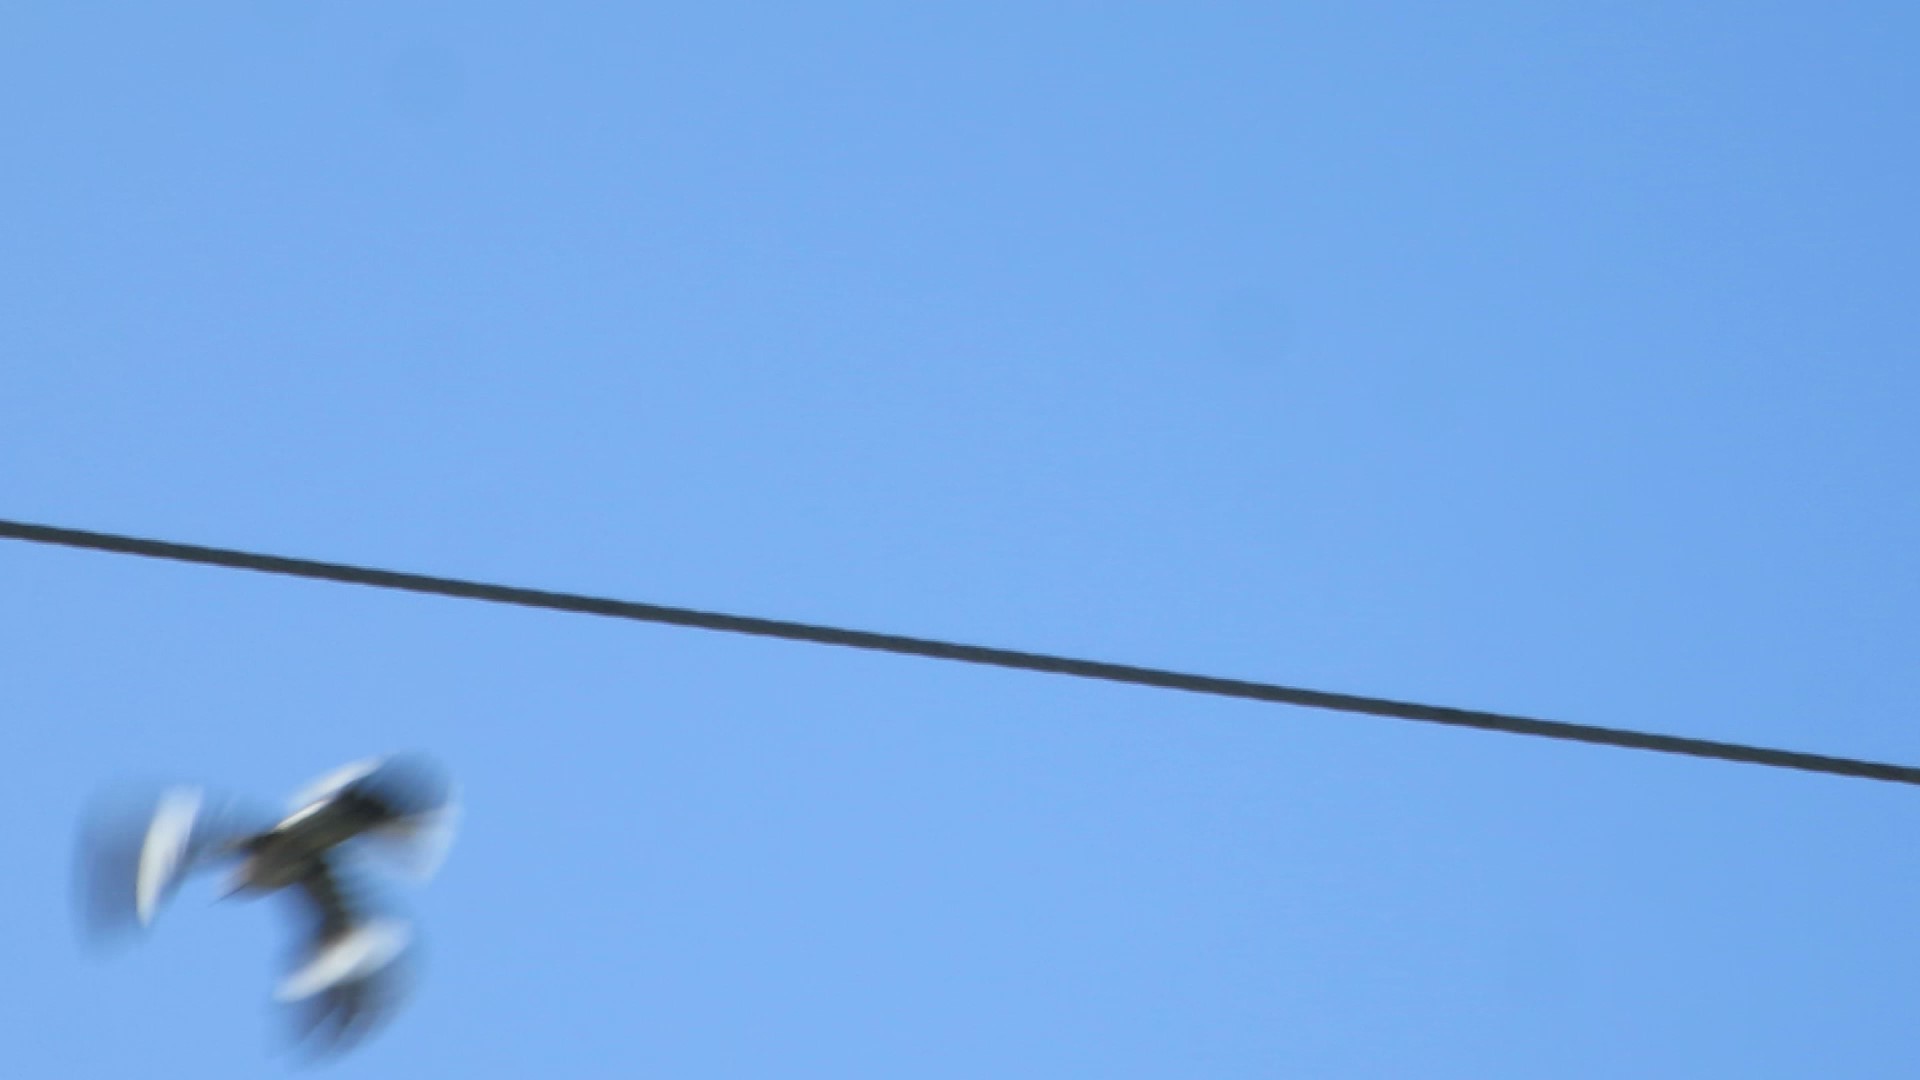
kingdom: Animalia
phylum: Chordata
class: Aves
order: Passeriformes
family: Mimidae
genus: Mimus
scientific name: Mimus polyglottos
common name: Northern mockingbird
